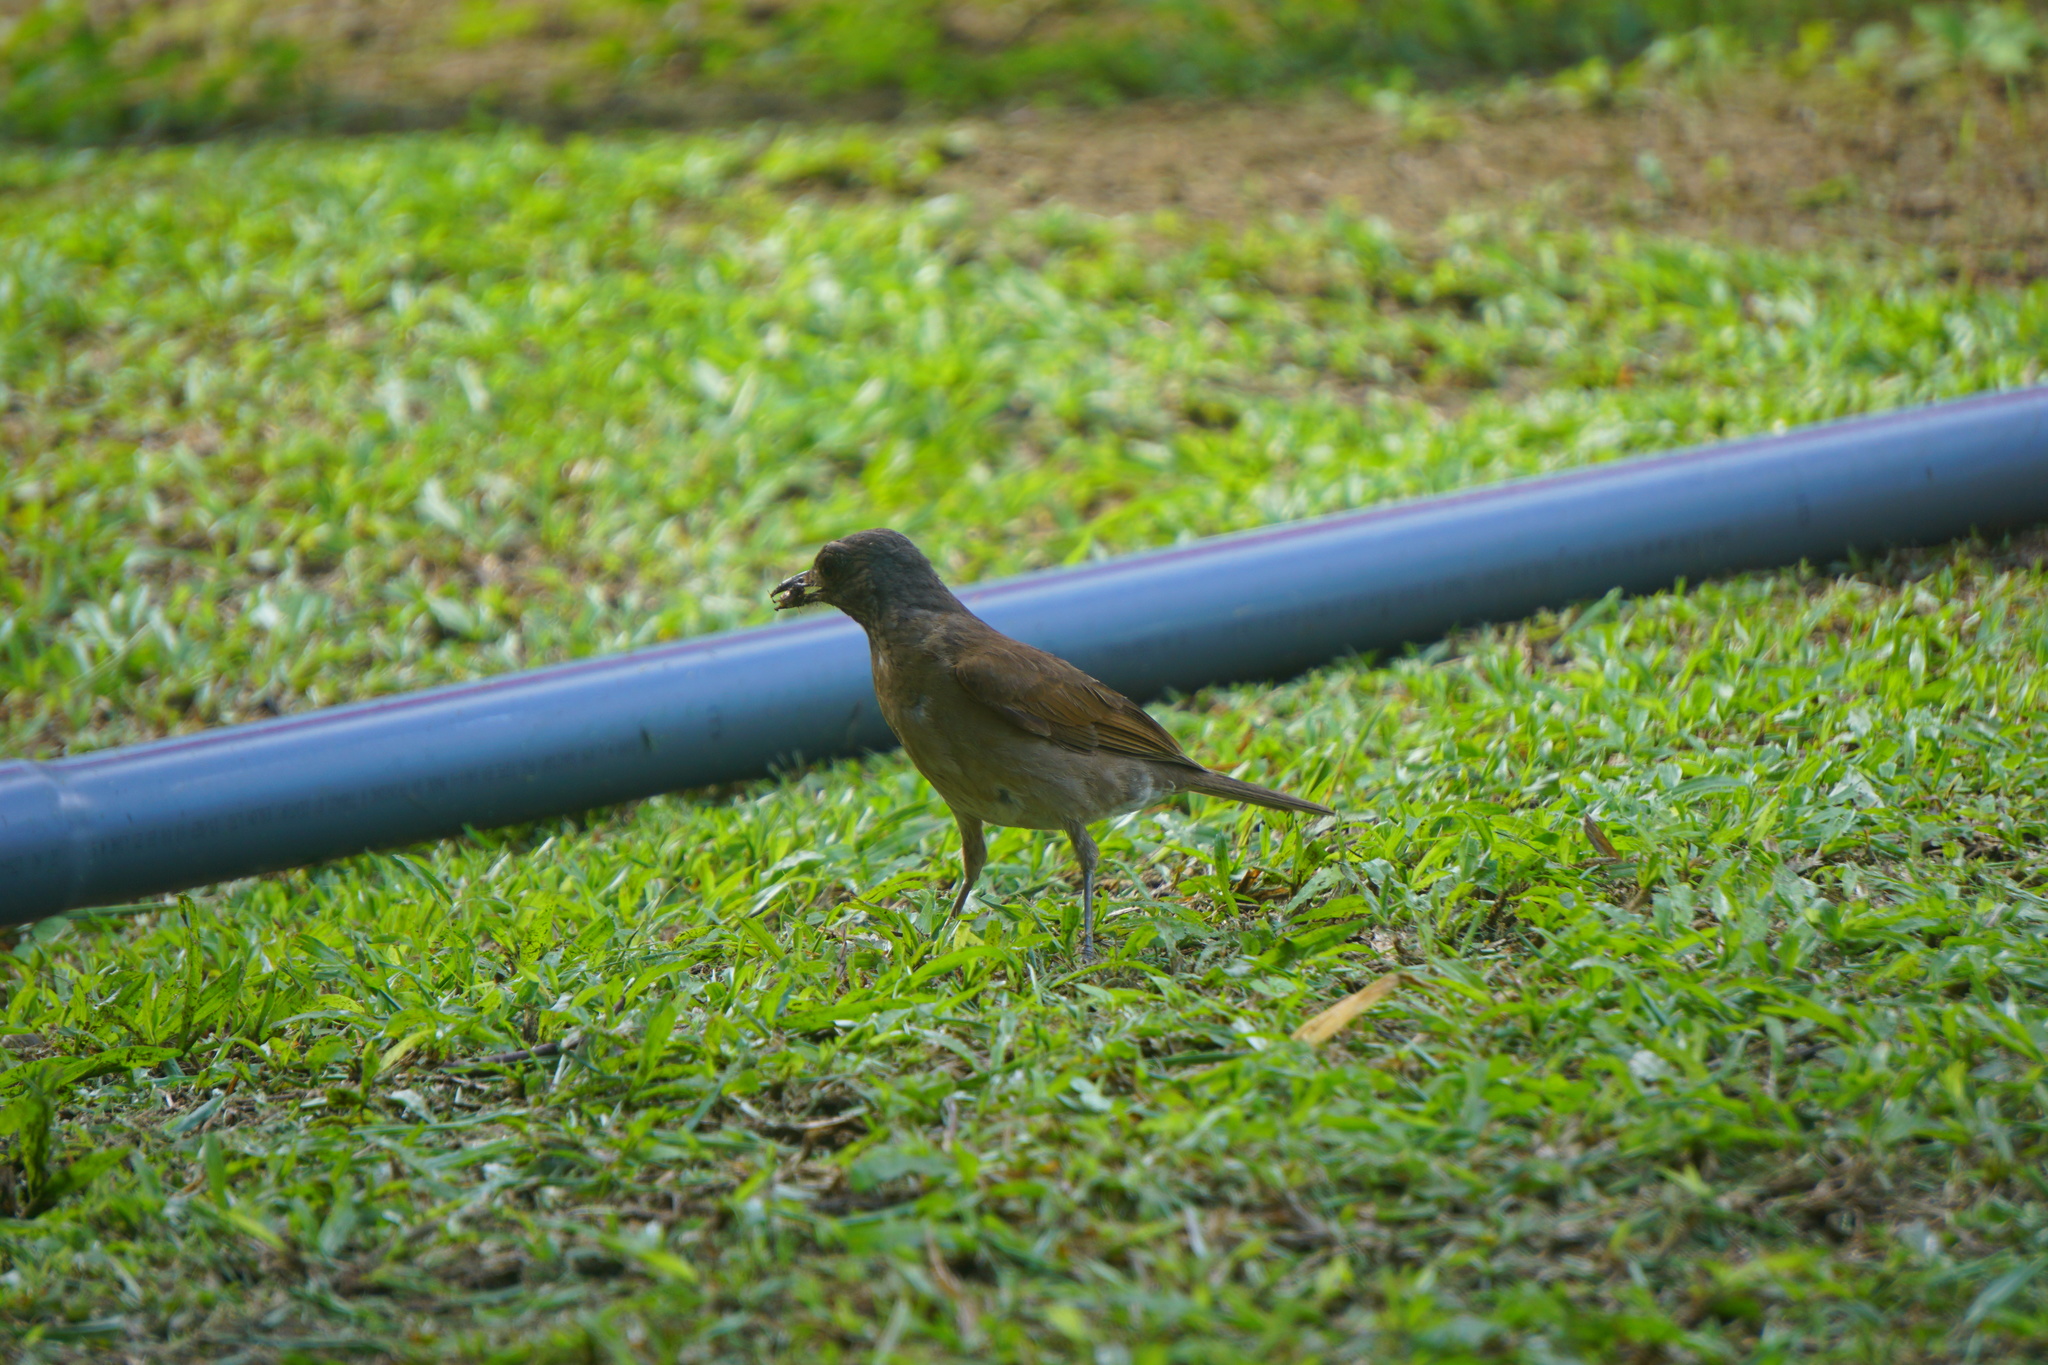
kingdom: Animalia
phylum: Chordata
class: Aves
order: Passeriformes
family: Turdidae
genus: Turdus
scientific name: Turdus ignobilis
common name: Black-billed thrush
